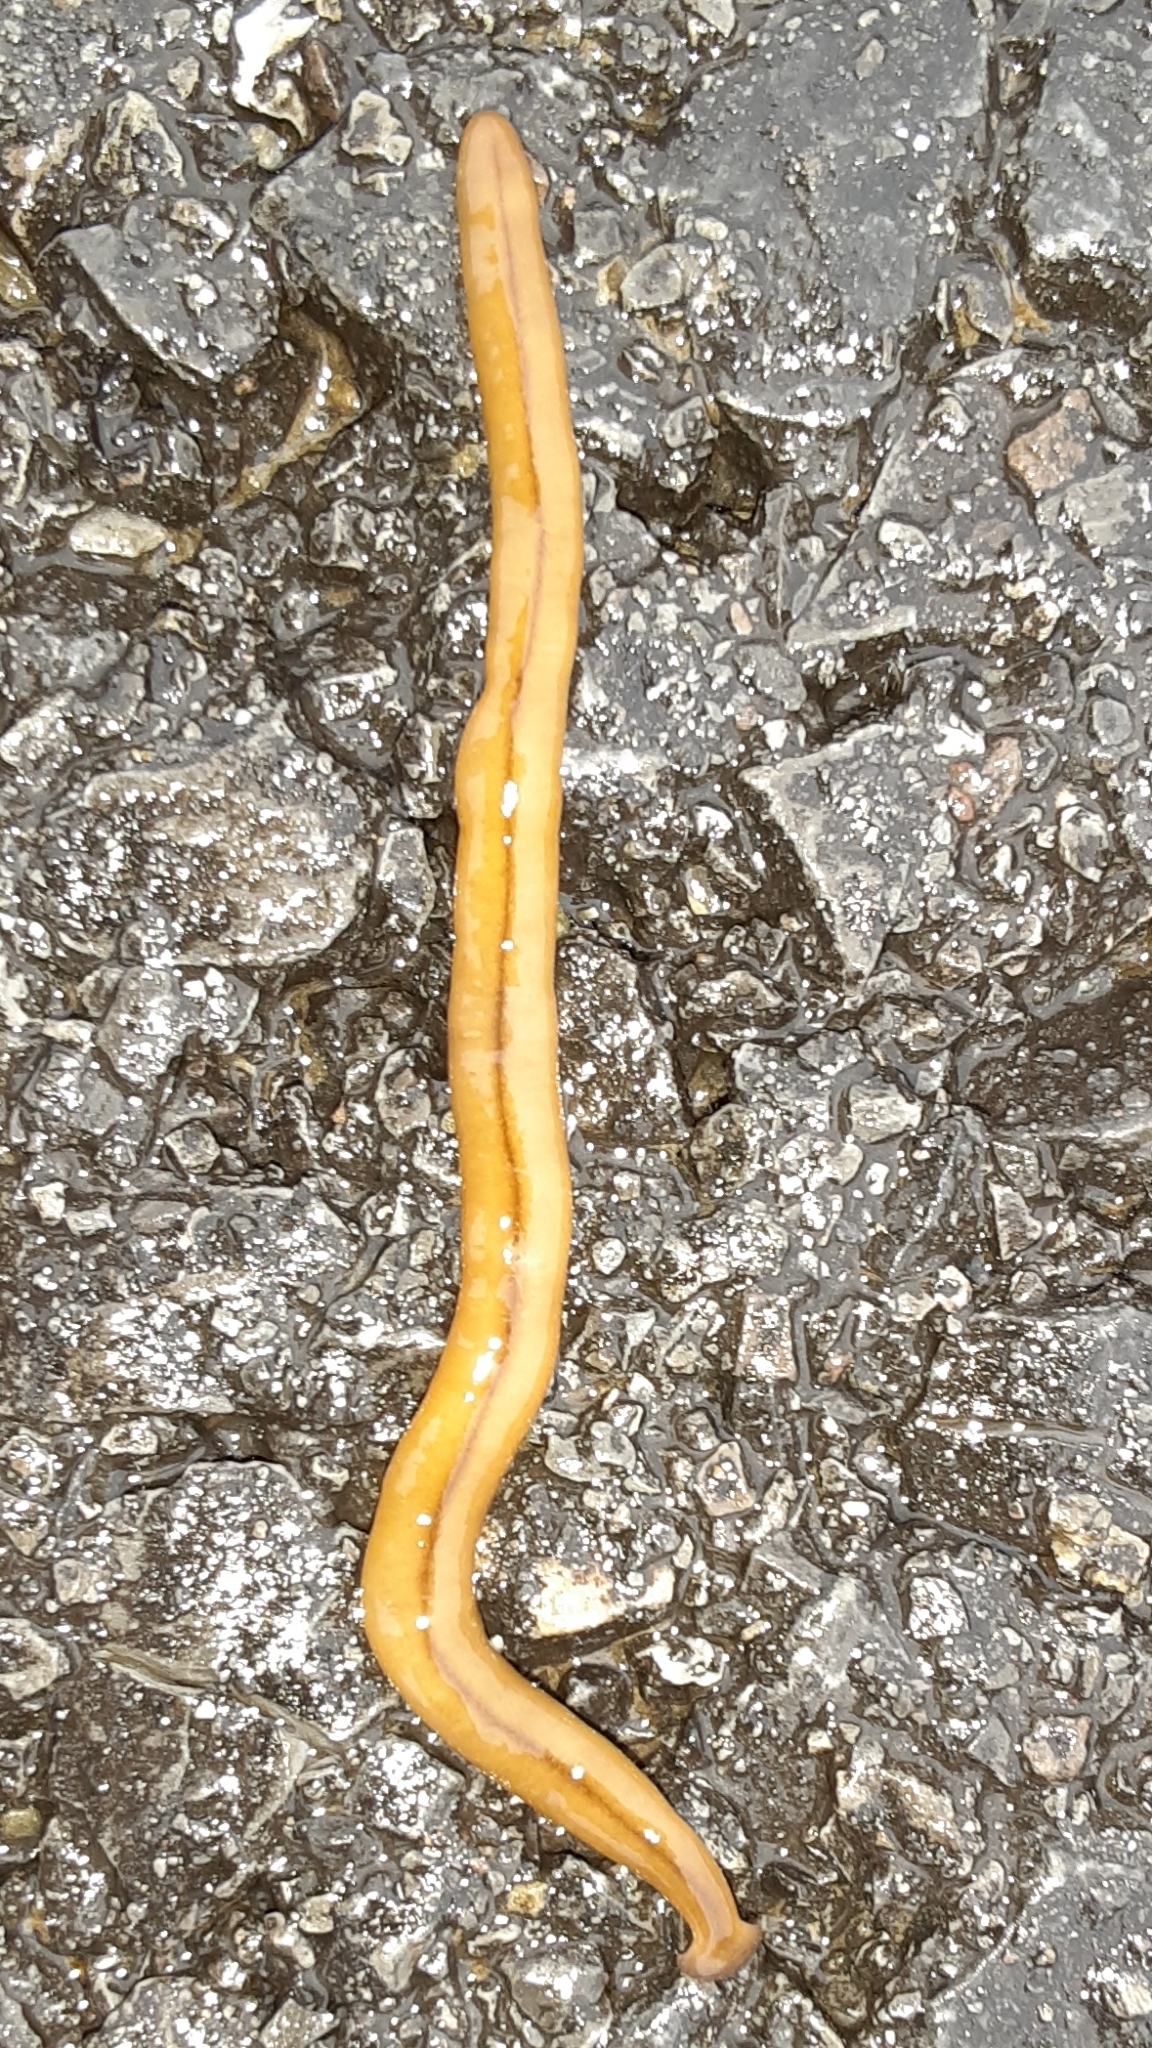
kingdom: Animalia
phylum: Platyhelminthes
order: Tricladida
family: Geoplanidae
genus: Bipalium
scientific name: Bipalium adventitium
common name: Land planarian
